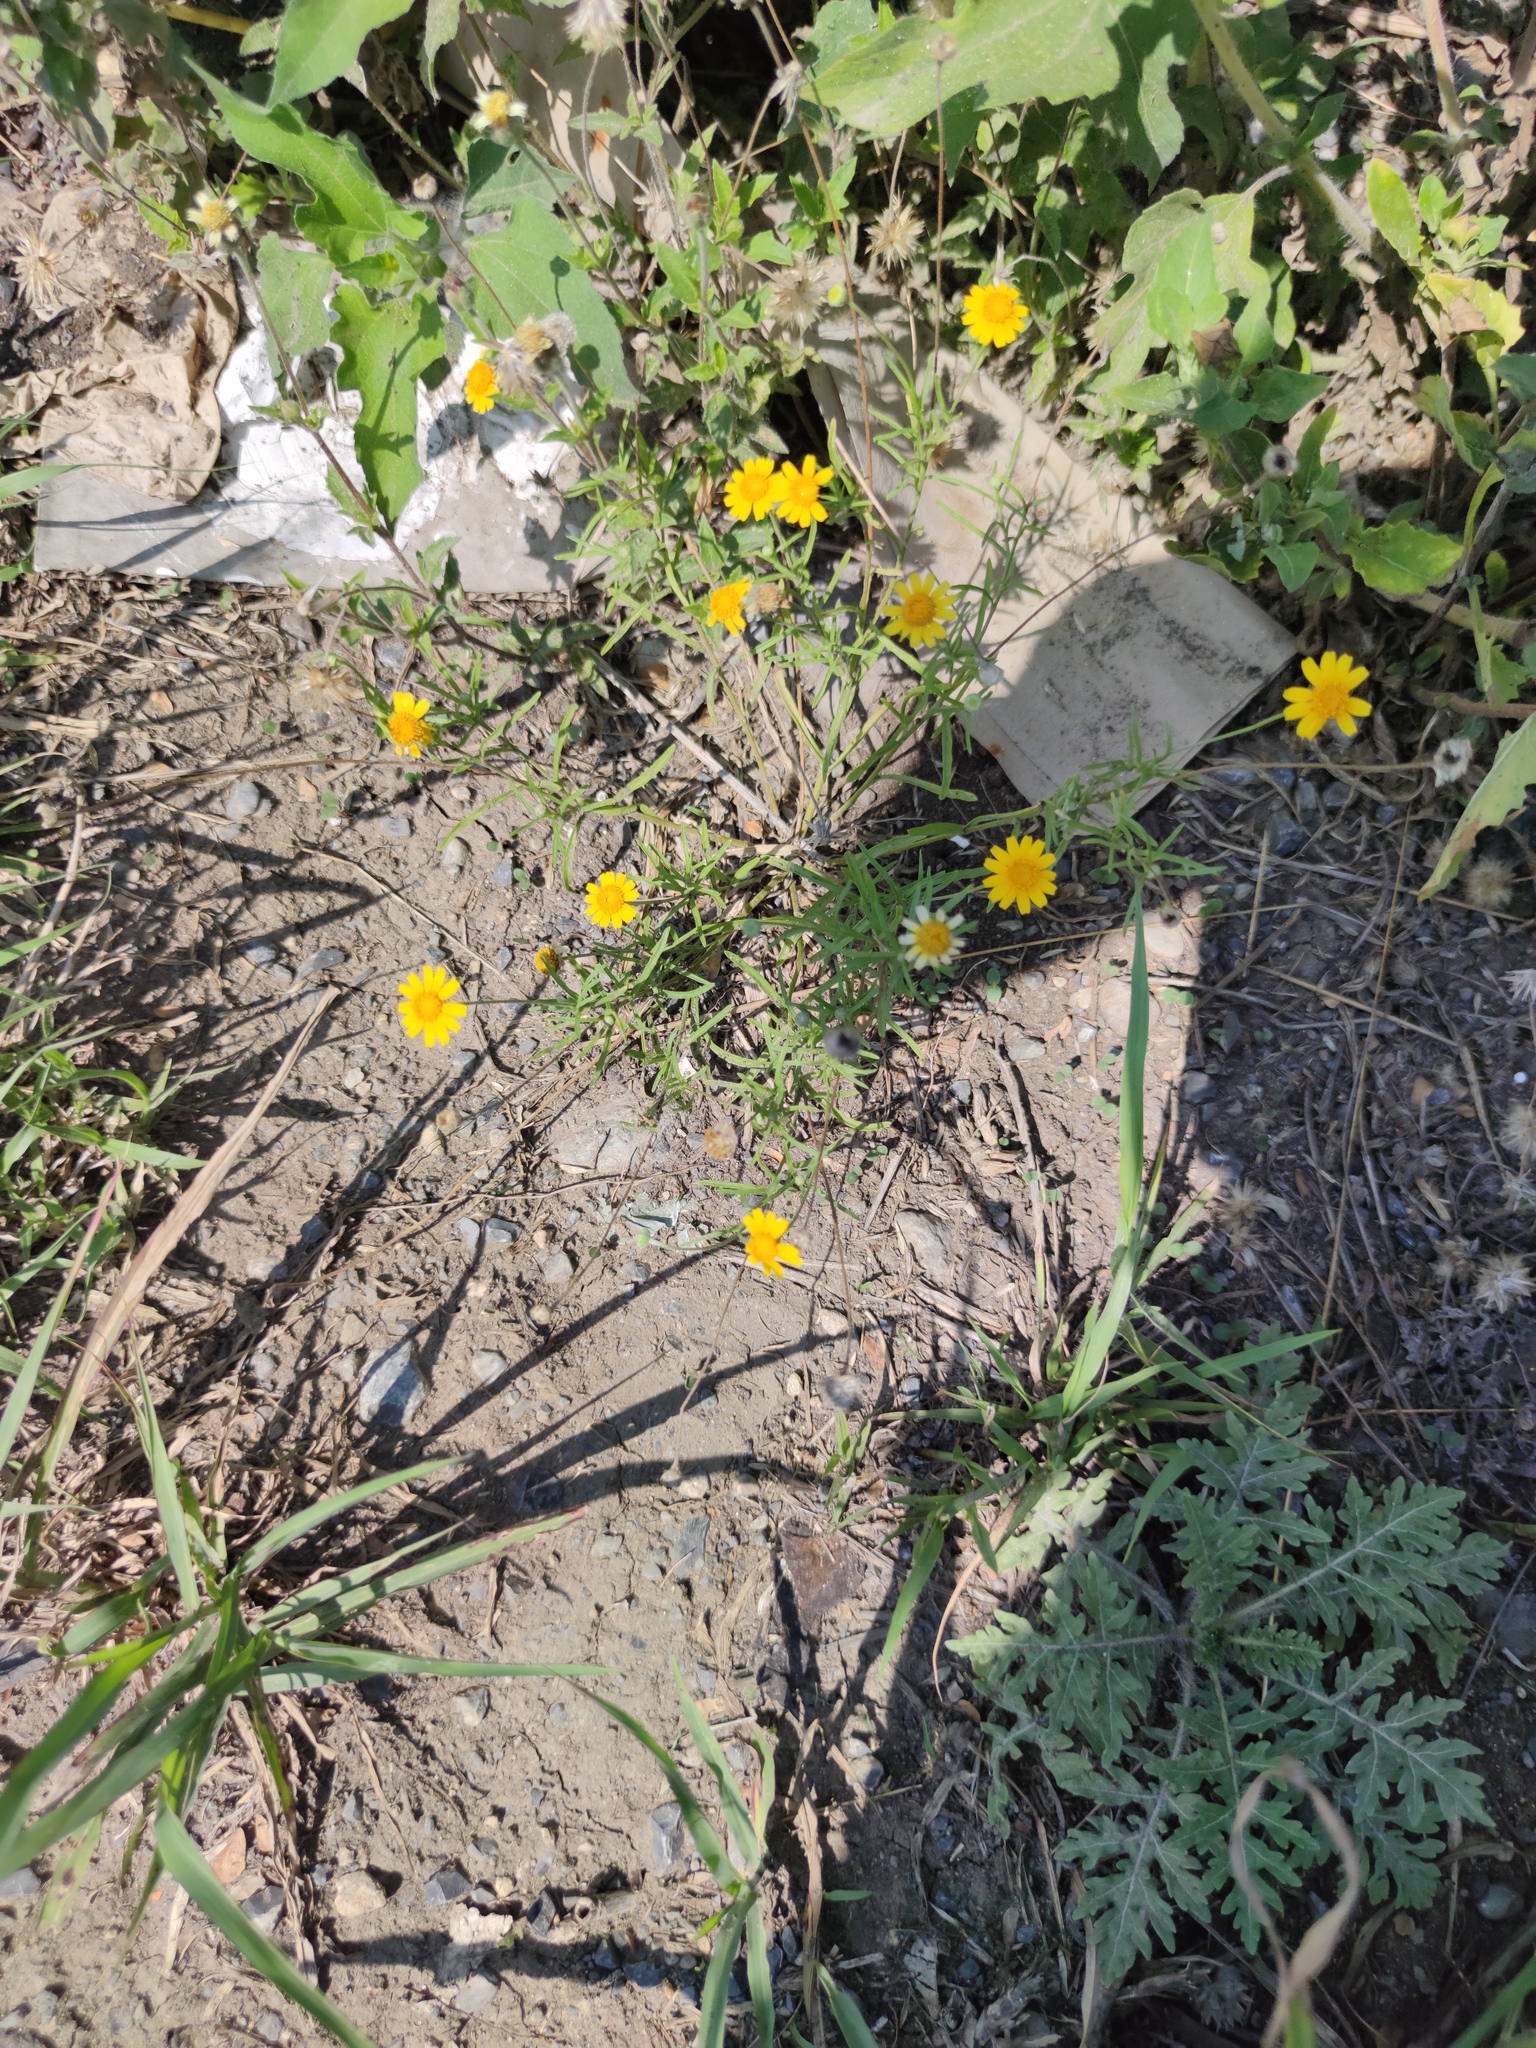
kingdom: Plantae
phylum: Tracheophyta
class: Magnoliopsida
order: Asterales
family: Asteraceae
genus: Tetraneuris
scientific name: Tetraneuris linearifolia
